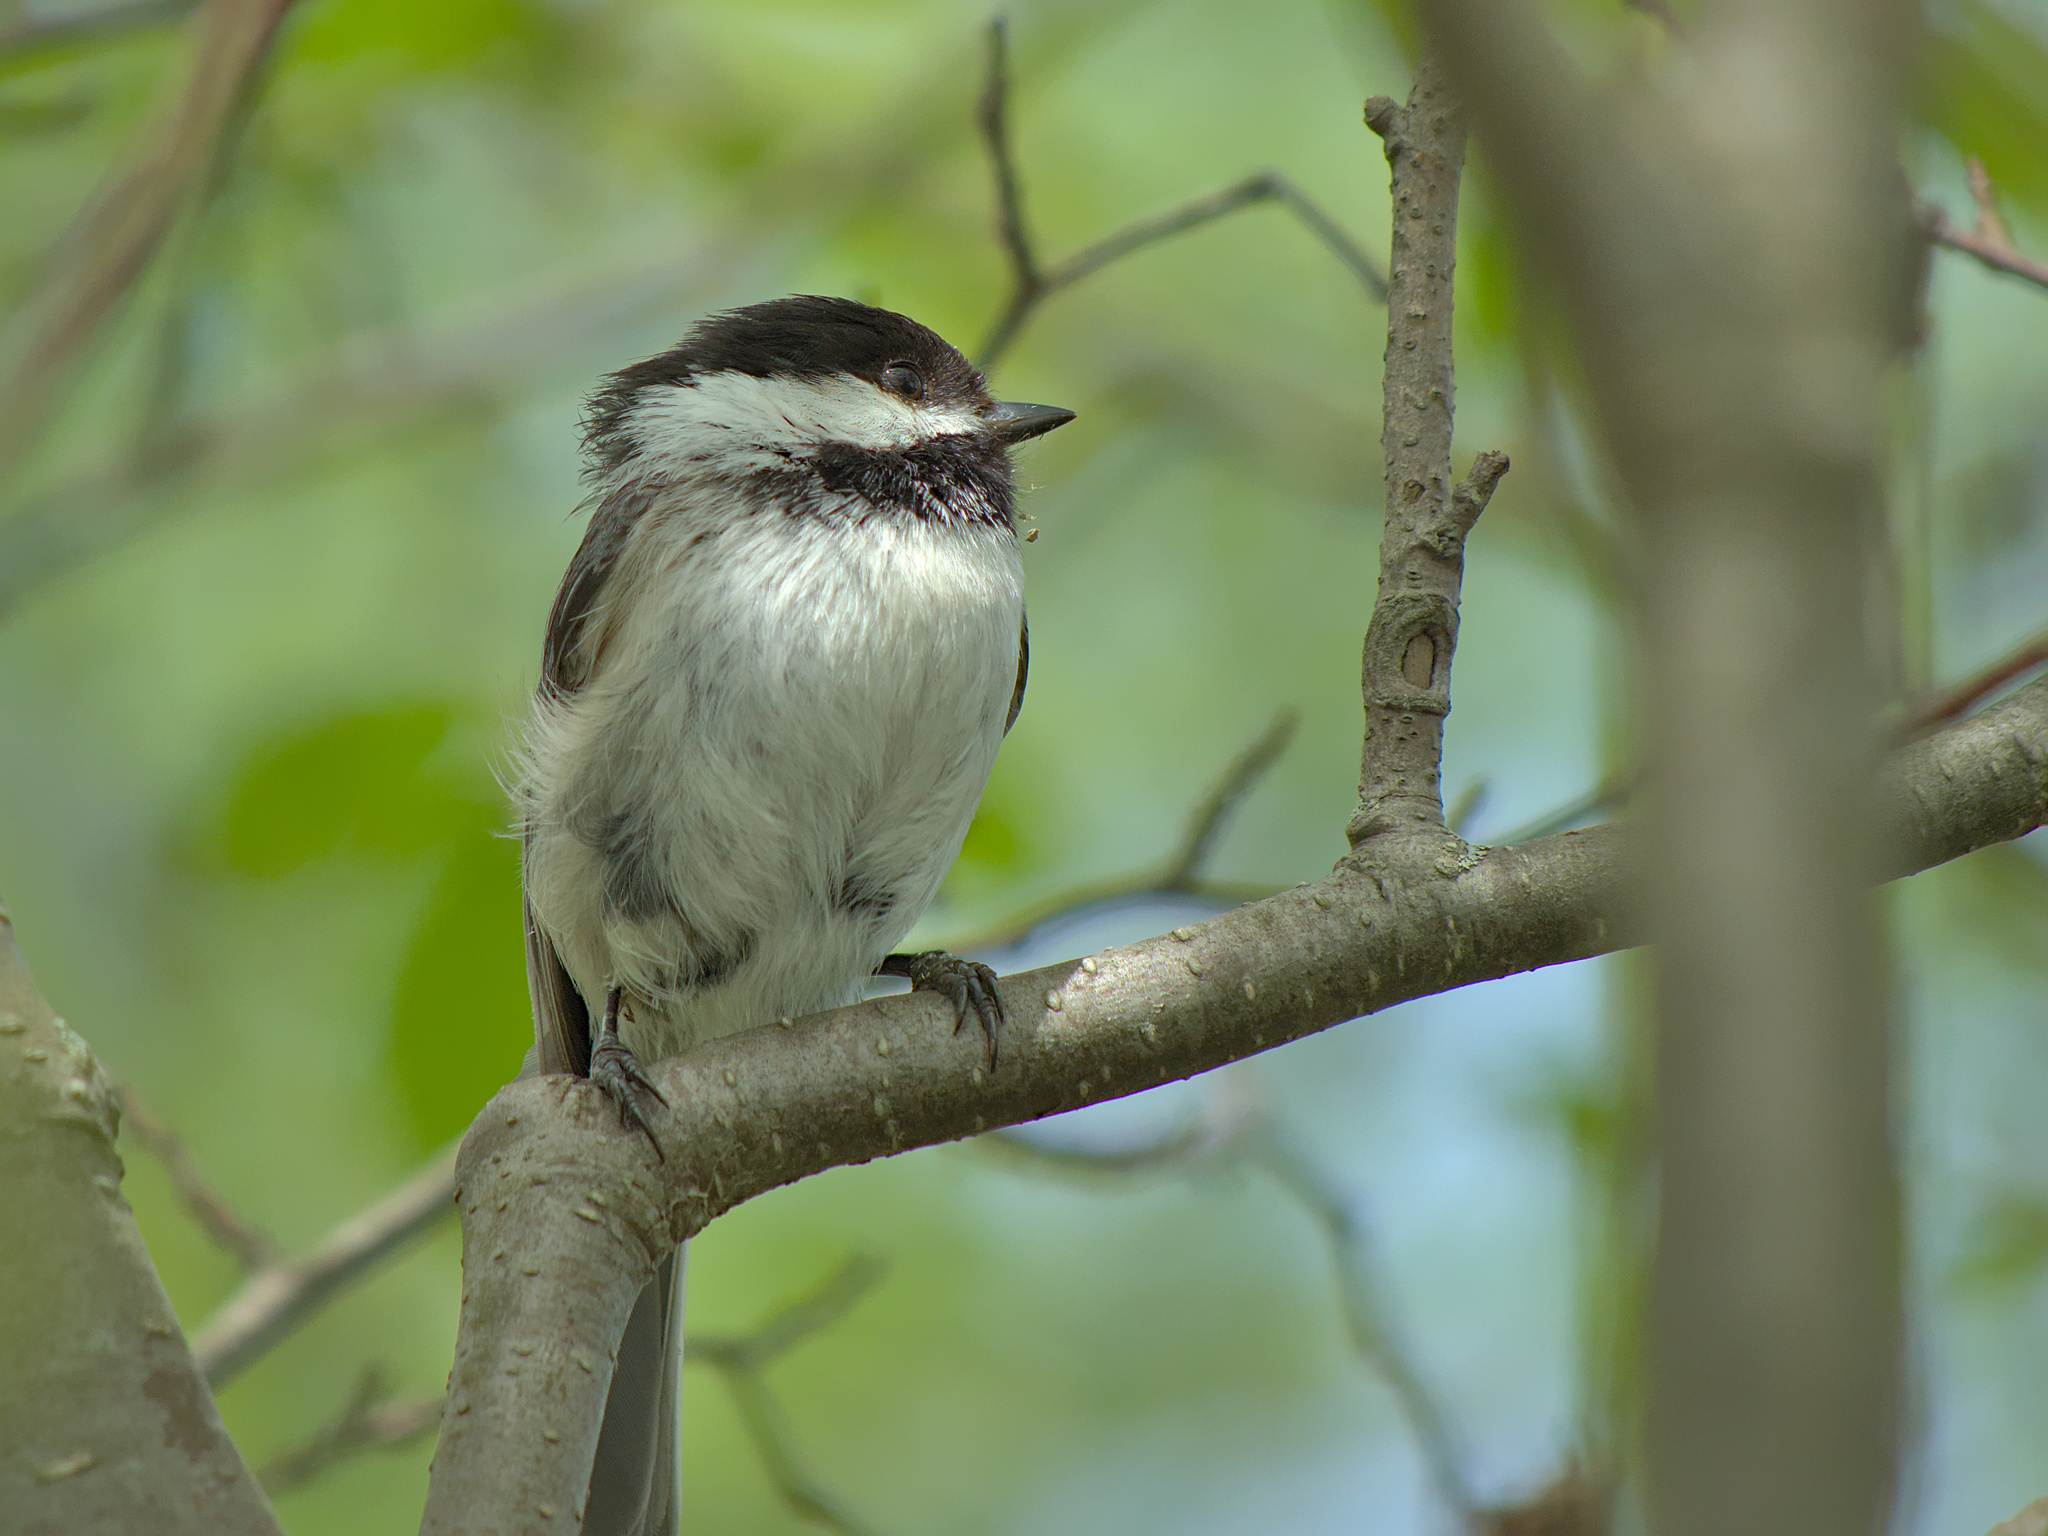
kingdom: Animalia
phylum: Chordata
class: Aves
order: Passeriformes
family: Paridae
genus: Poecile
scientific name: Poecile atricapillus
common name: Black-capped chickadee
